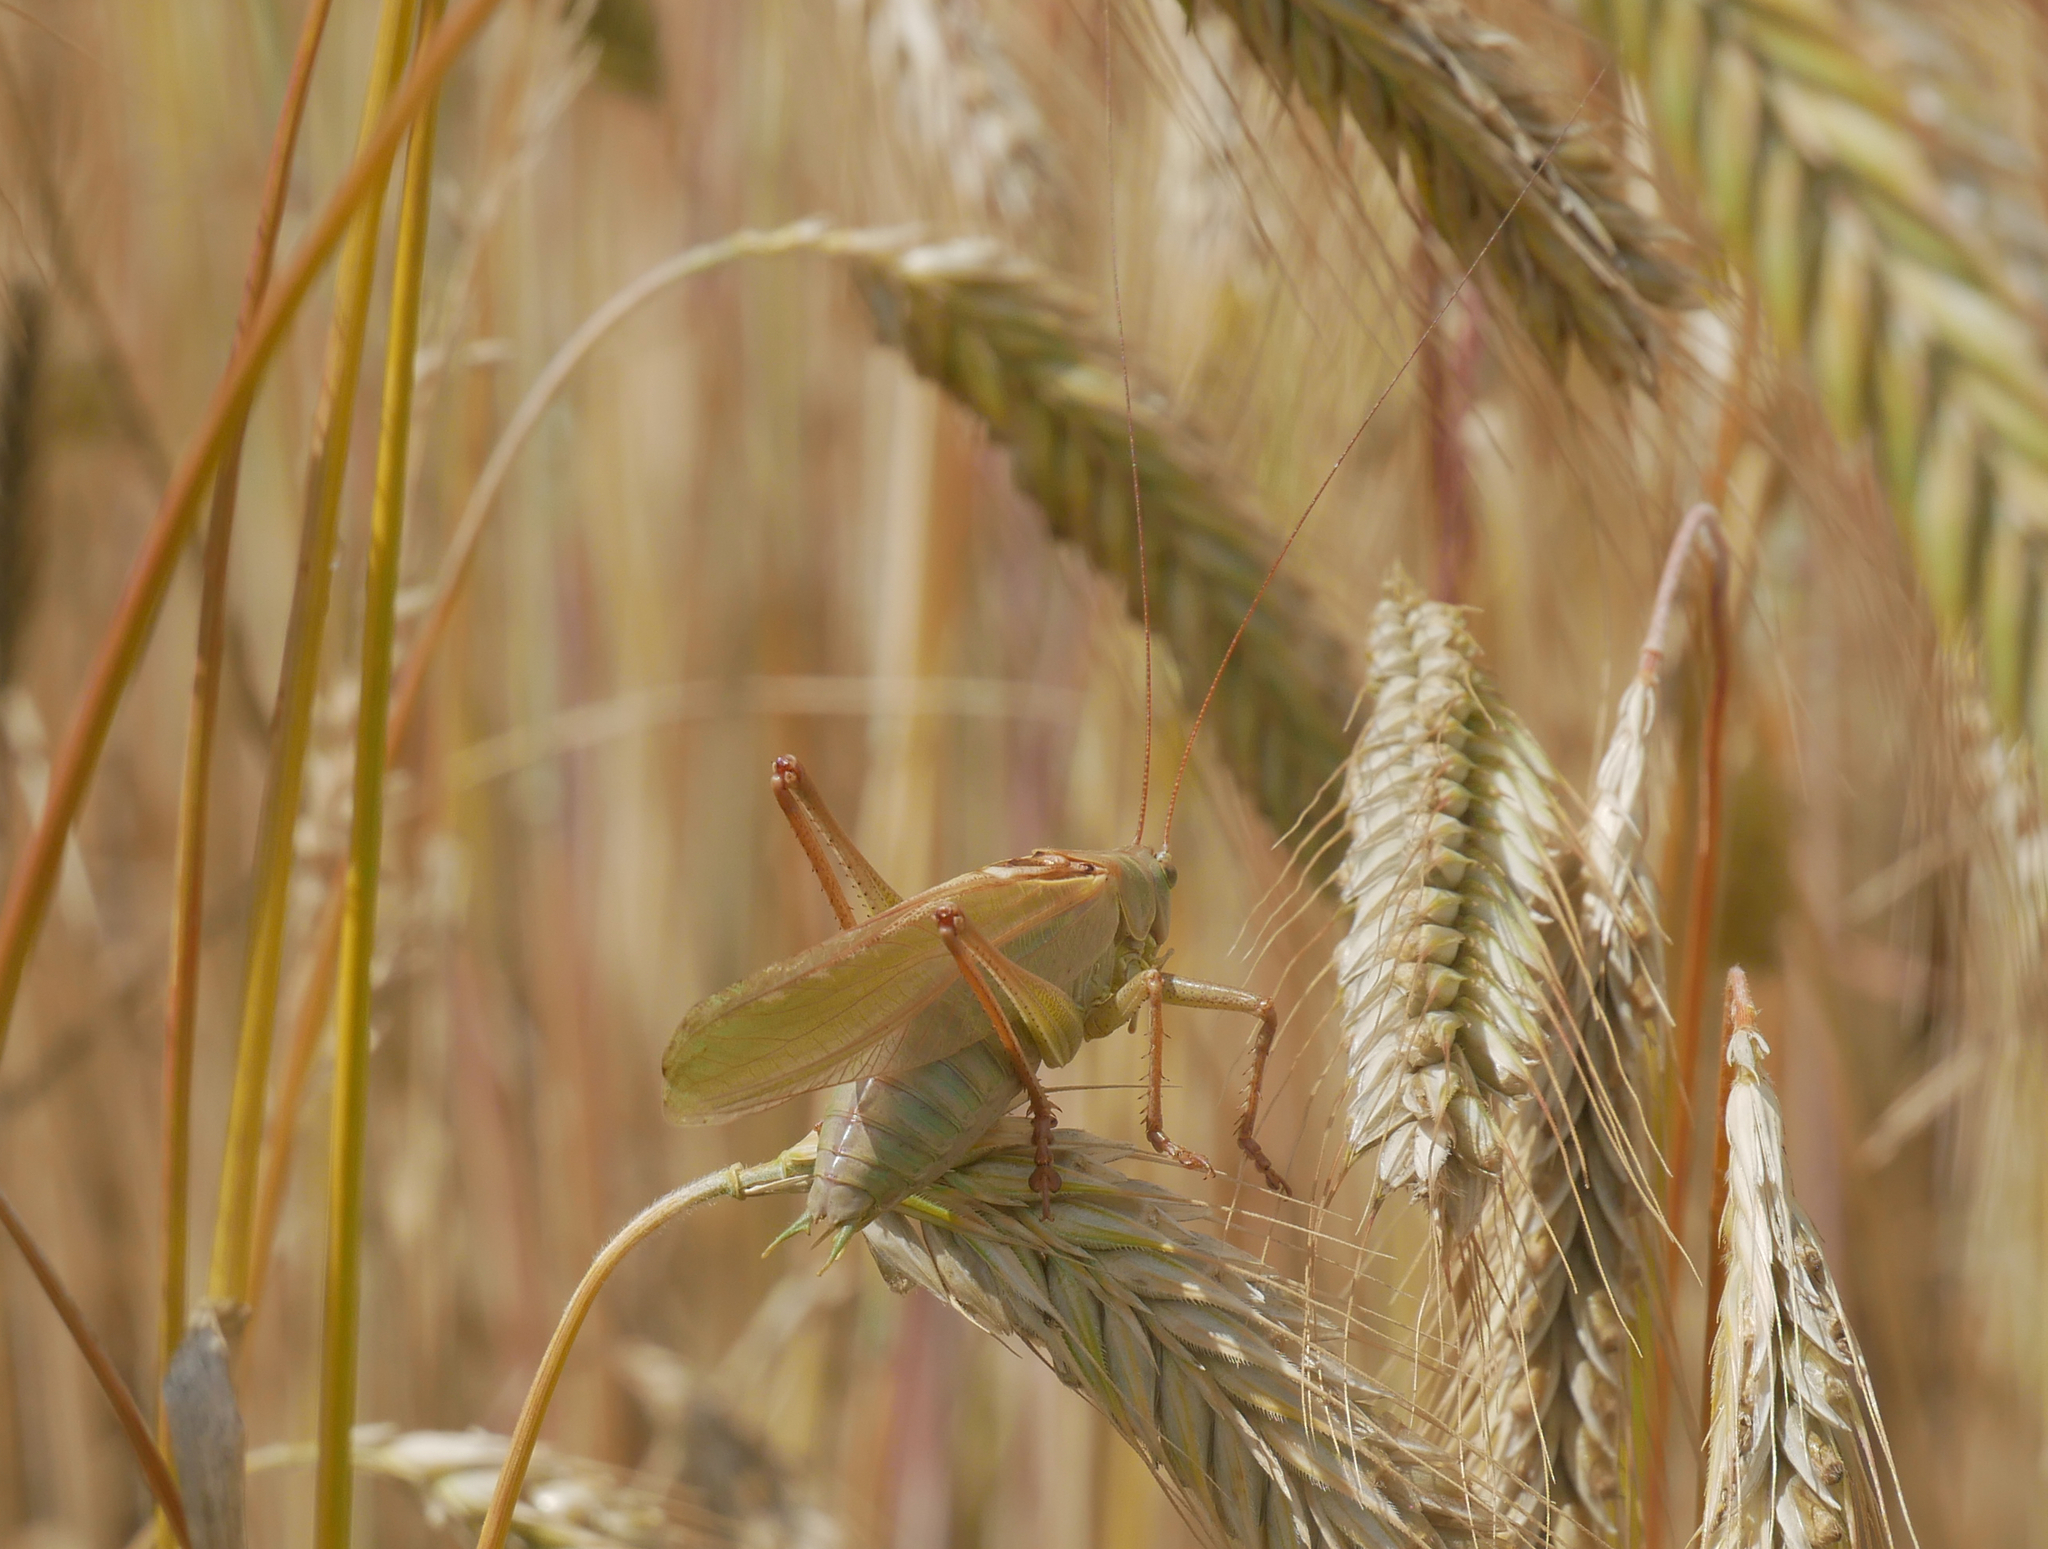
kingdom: Animalia
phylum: Arthropoda
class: Insecta
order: Orthoptera
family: Tettigoniidae
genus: Tettigonia
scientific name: Tettigonia cantans
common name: Upland green bush-cricket
